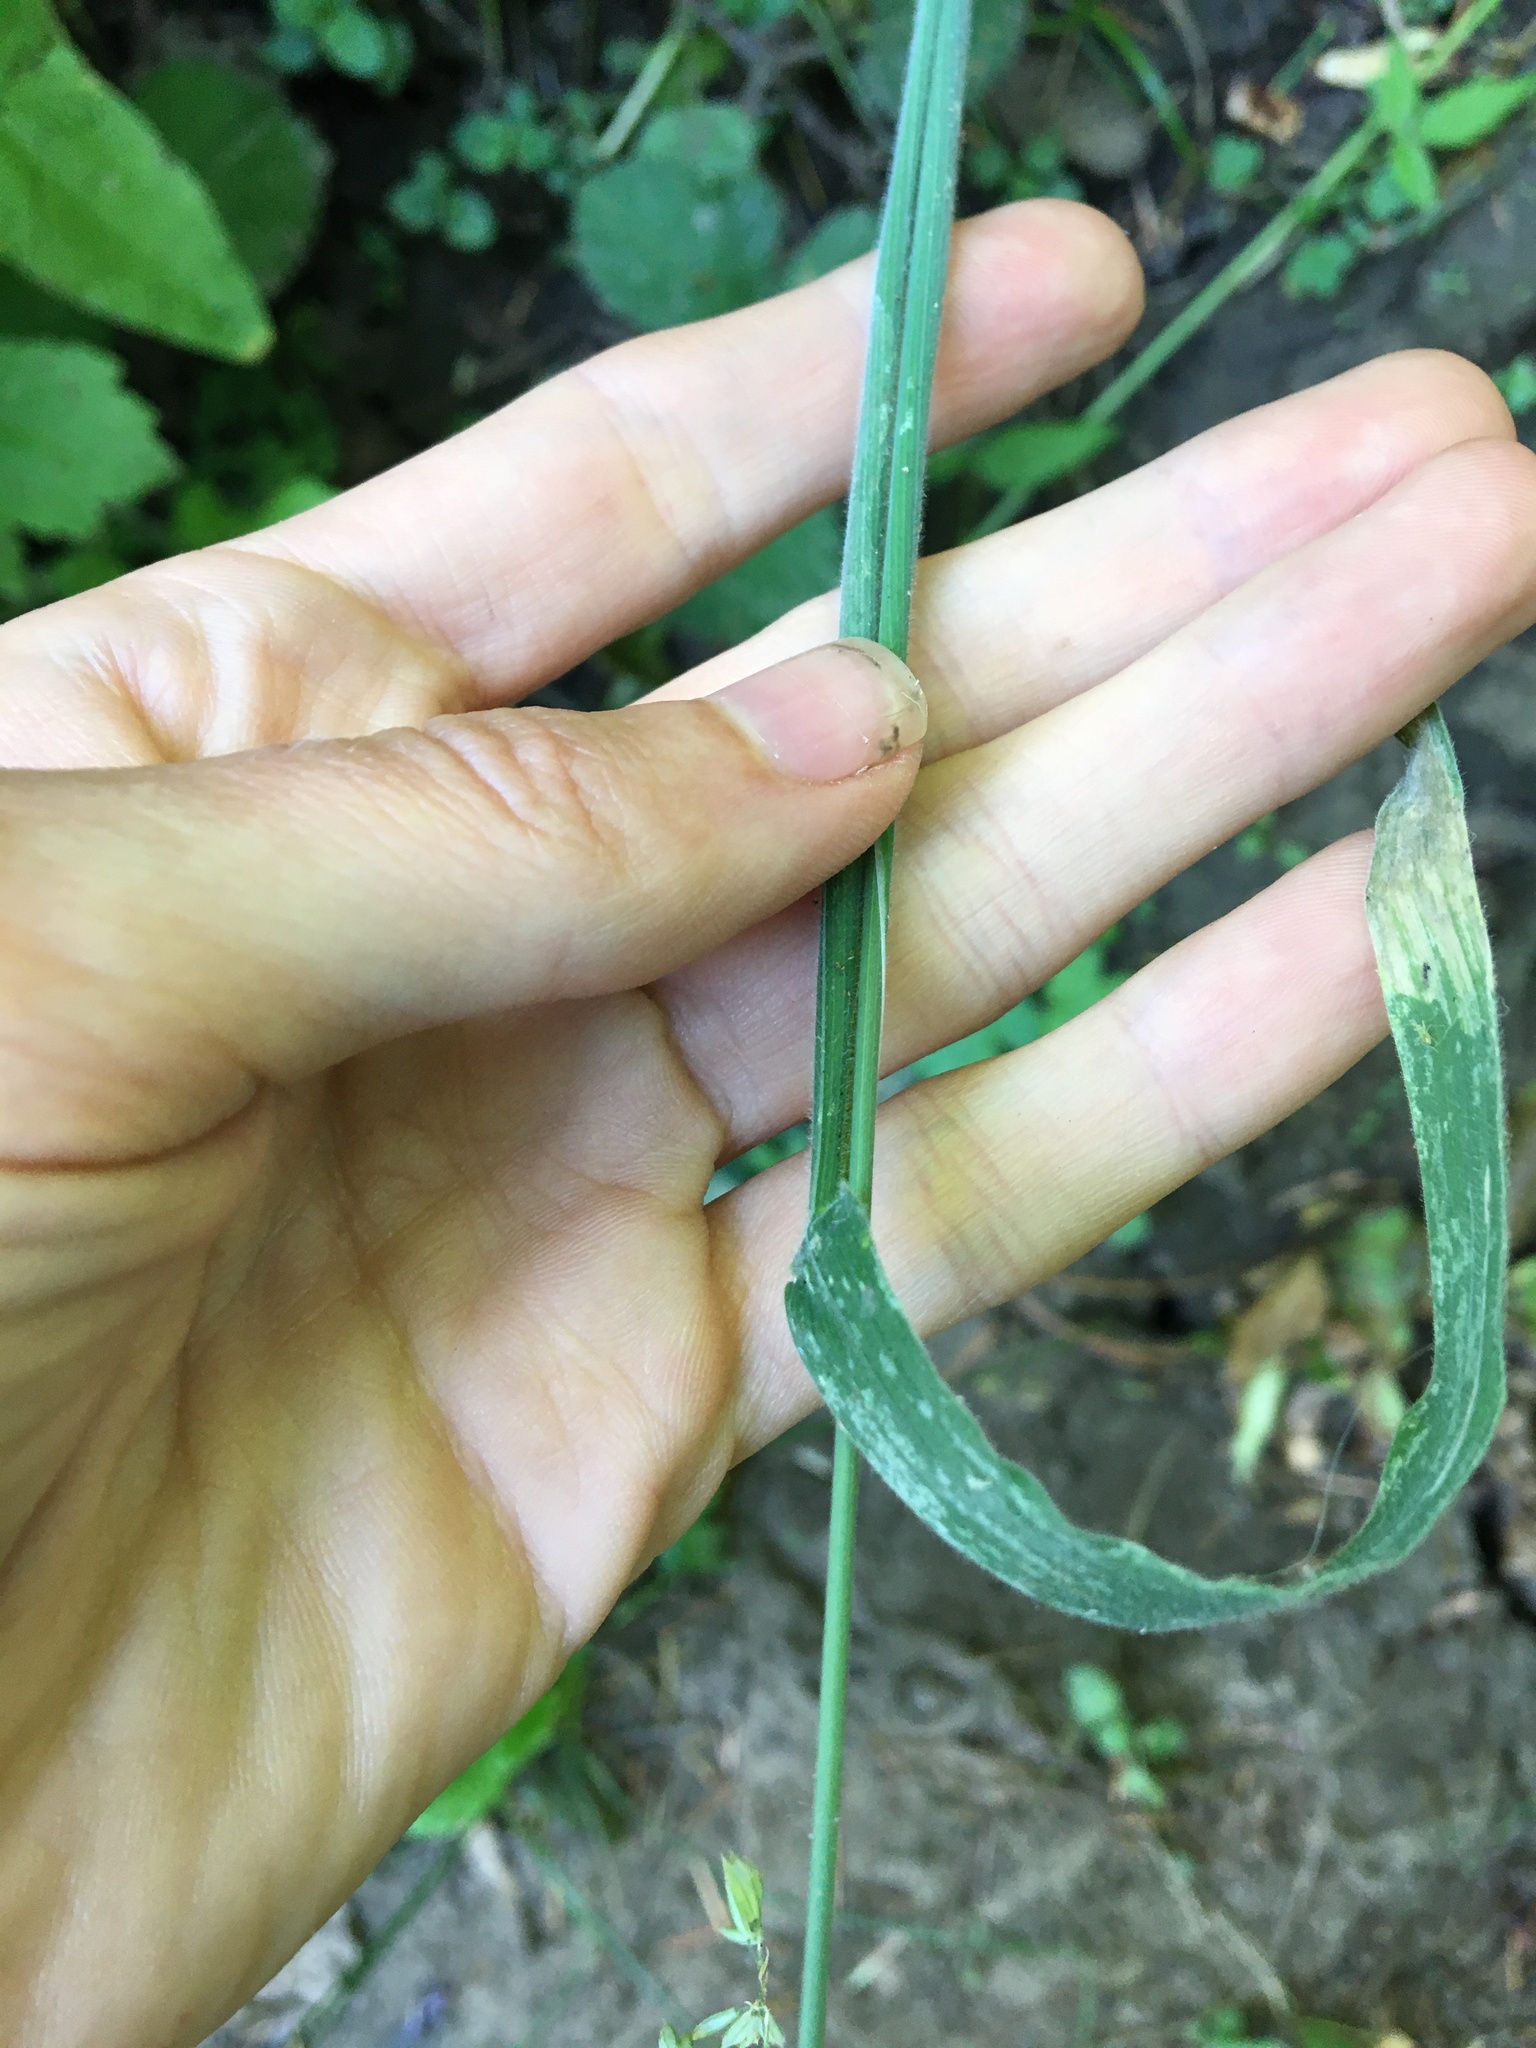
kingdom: Plantae
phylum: Tracheophyta
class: Liliopsida
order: Poales
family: Poaceae
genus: Holcus
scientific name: Holcus lanatus
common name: Yorkshire-fog
